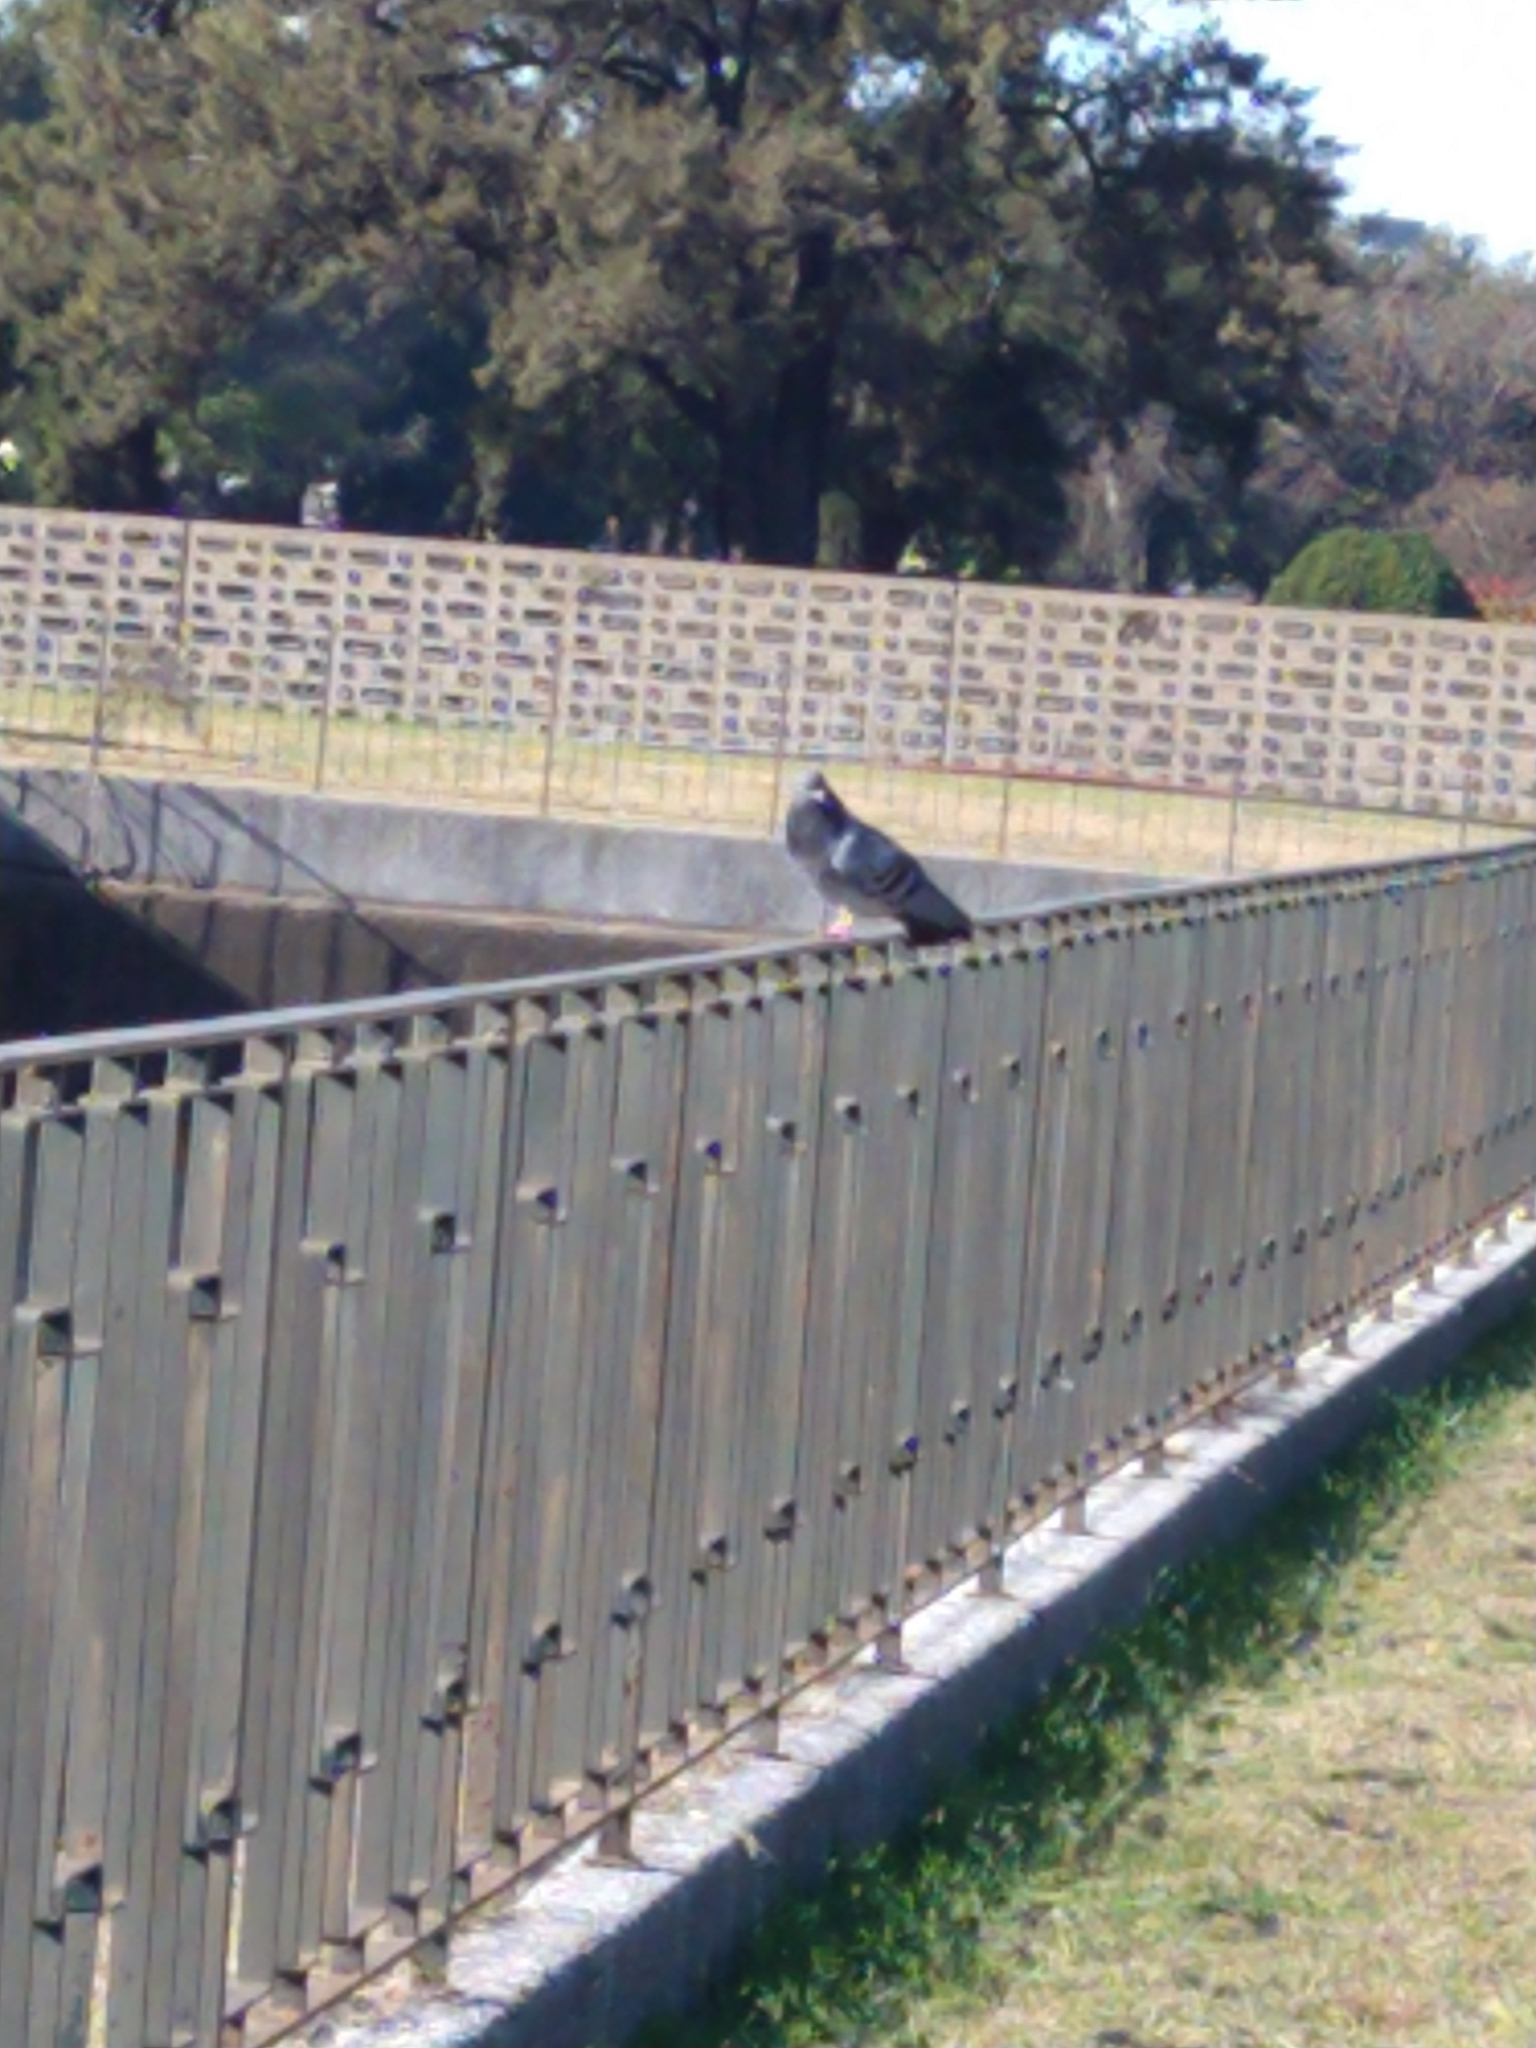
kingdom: Animalia
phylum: Chordata
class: Aves
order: Columbiformes
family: Columbidae
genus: Columba
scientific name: Columba livia
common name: Rock pigeon
